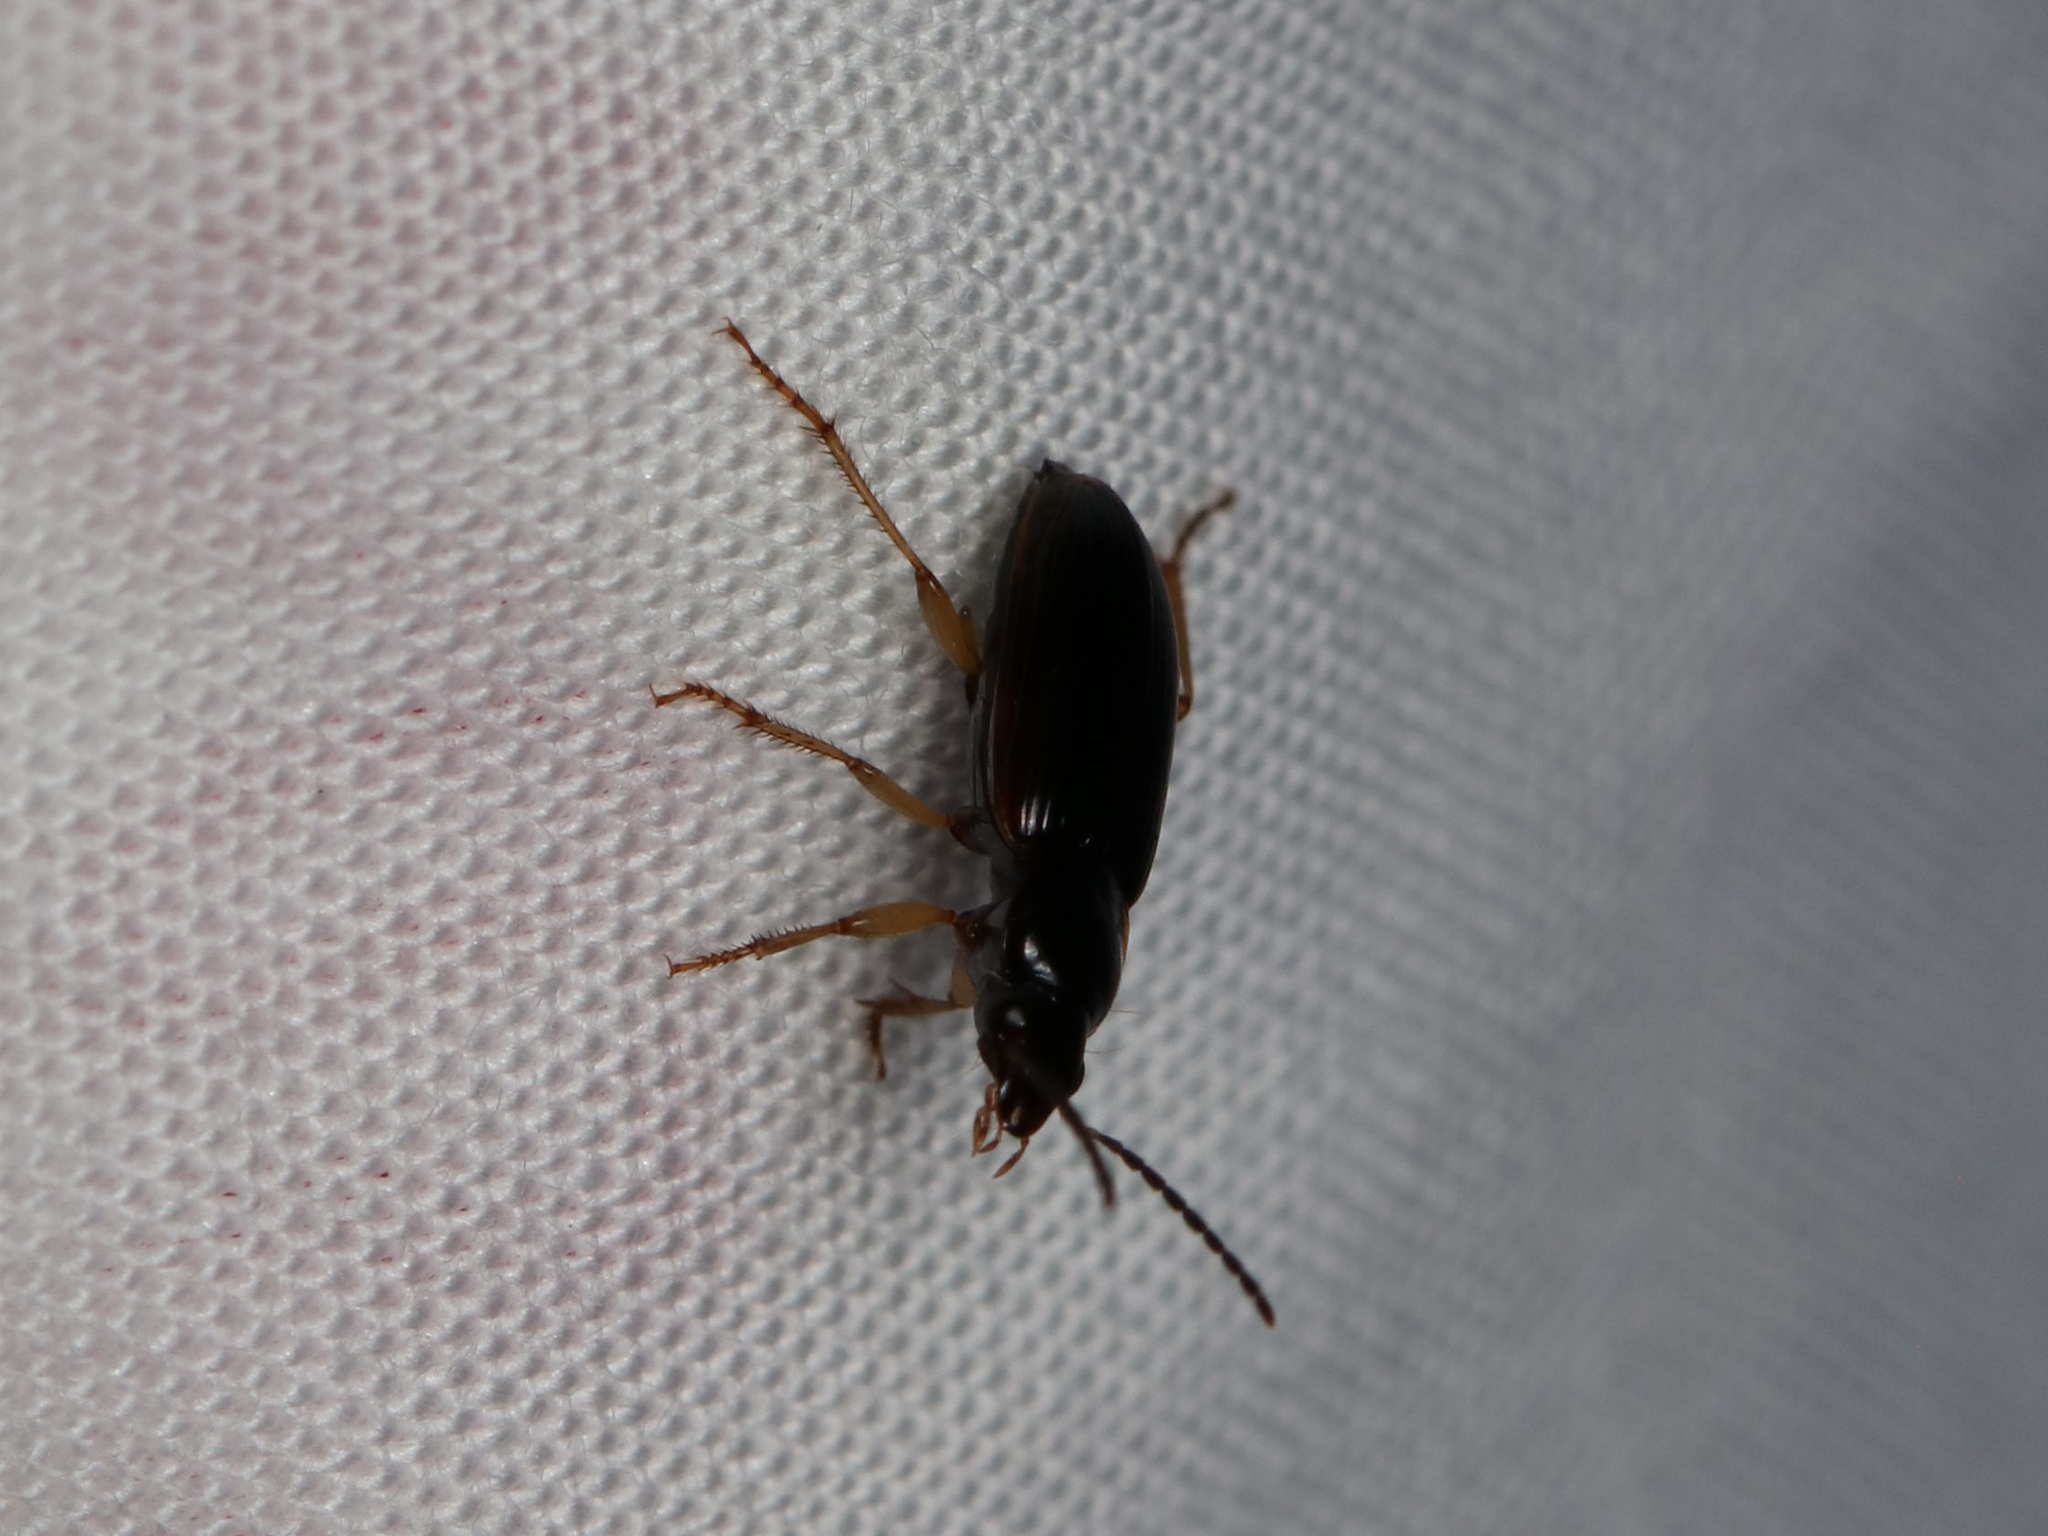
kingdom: Animalia
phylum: Arthropoda
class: Insecta
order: Coleoptera
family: Carabidae
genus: Stenolophus
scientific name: Stenolophus ochropezus
